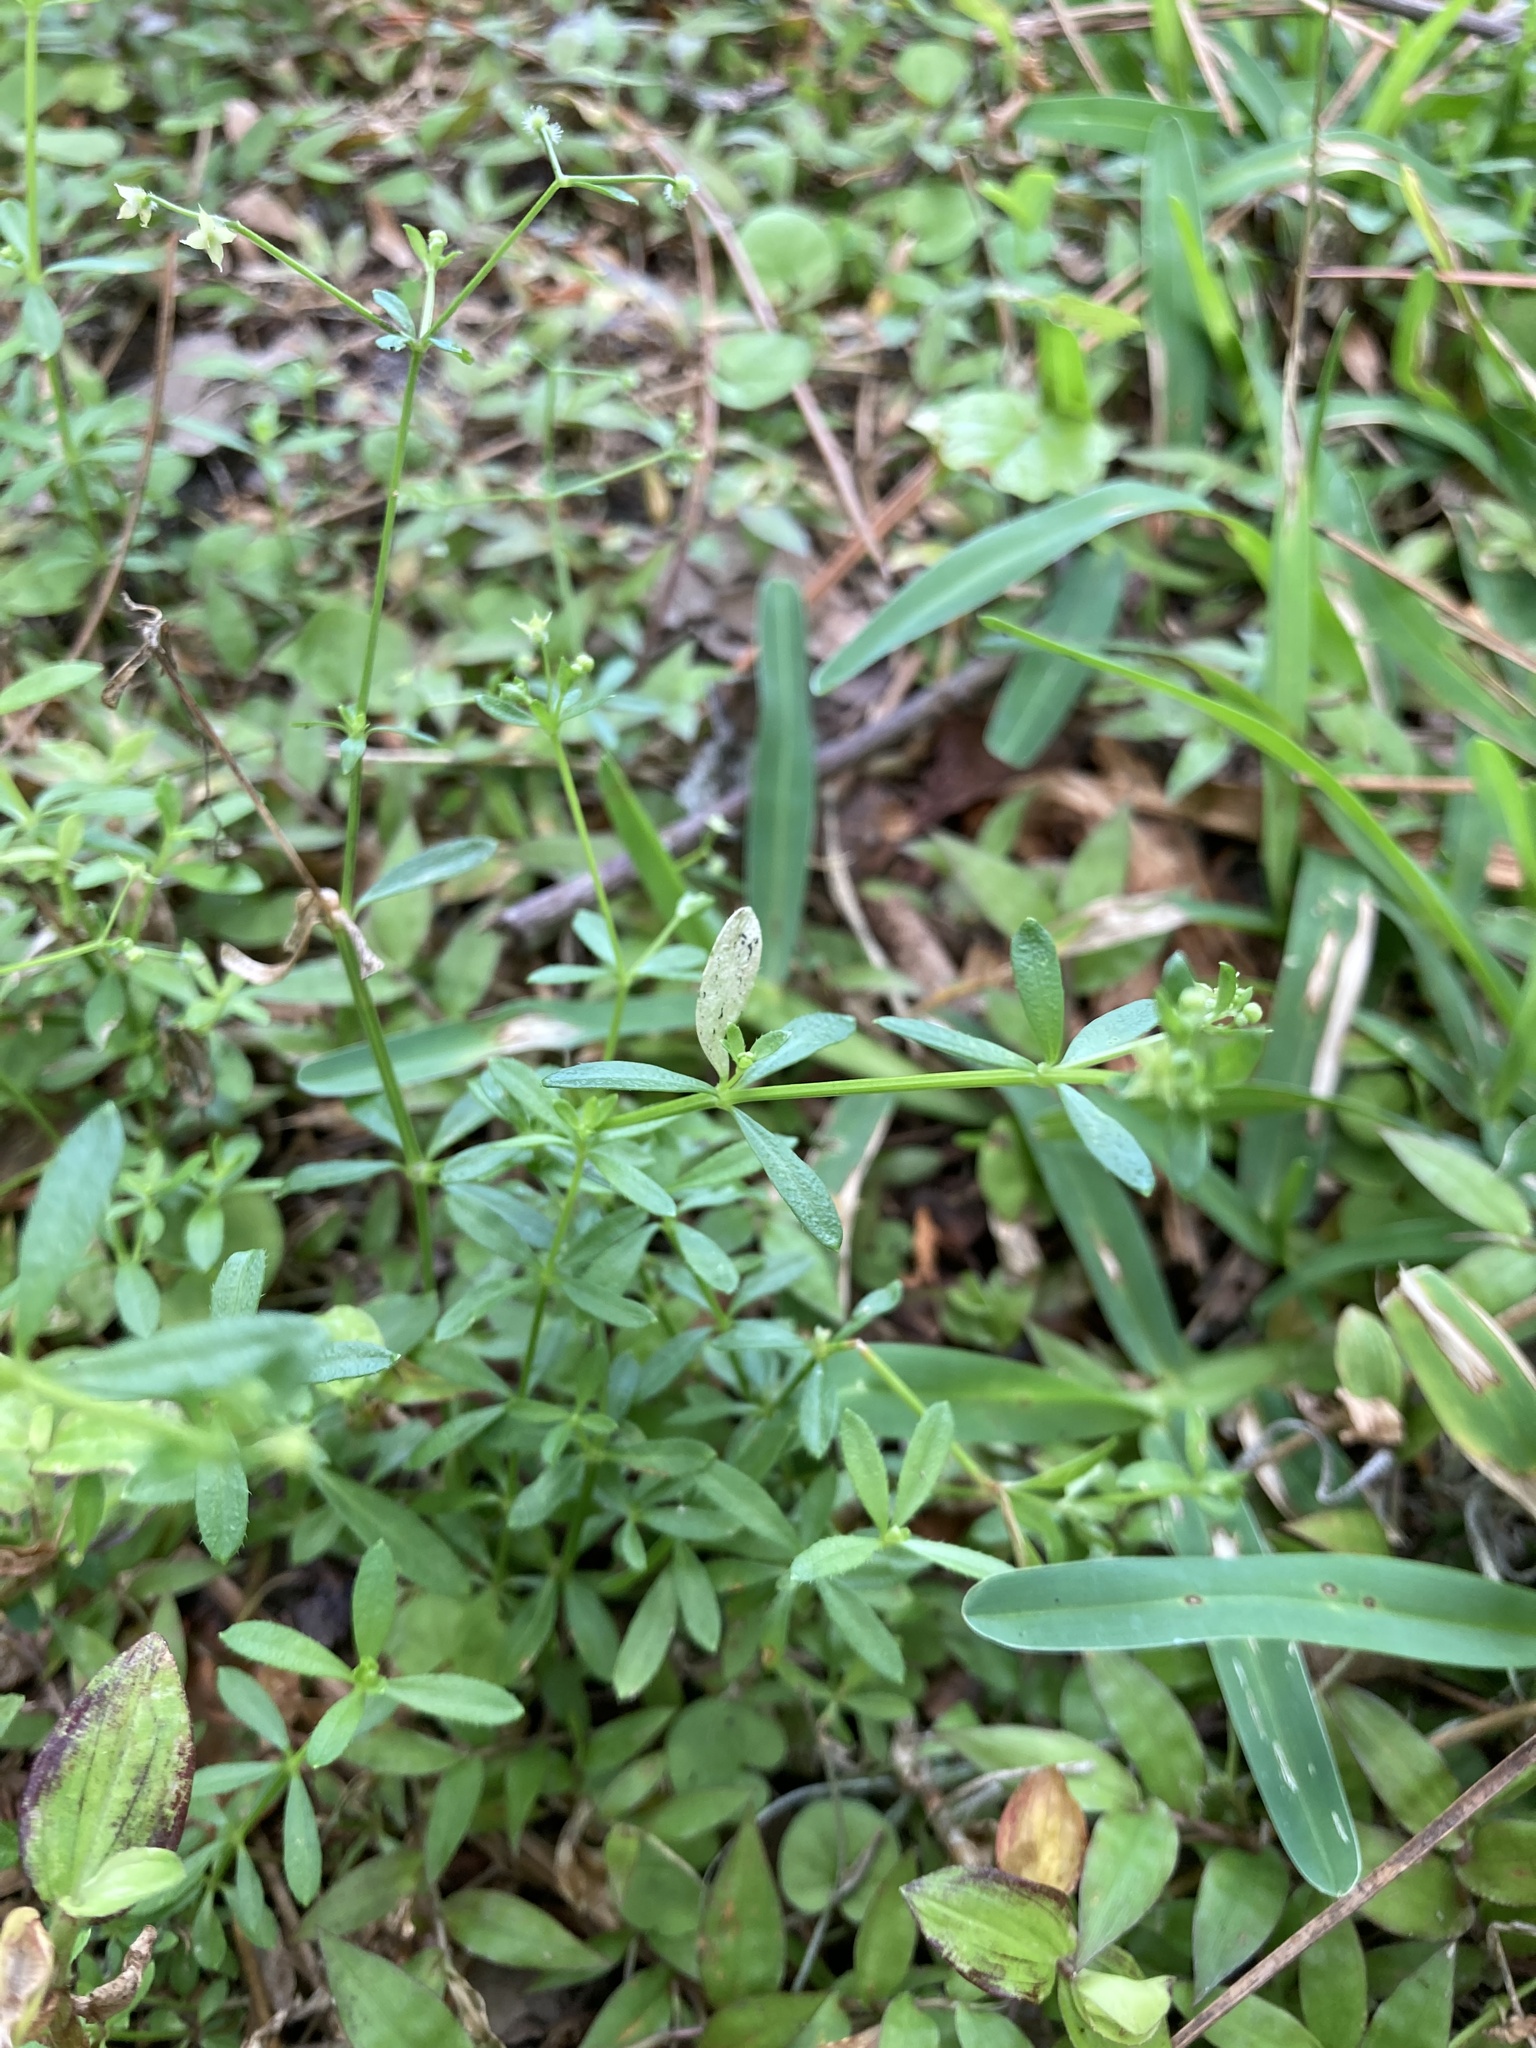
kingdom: Plantae
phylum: Tracheophyta
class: Magnoliopsida
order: Gentianales
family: Rubiaceae
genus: Galium
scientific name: Galium tinctorium
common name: Bedstraw
